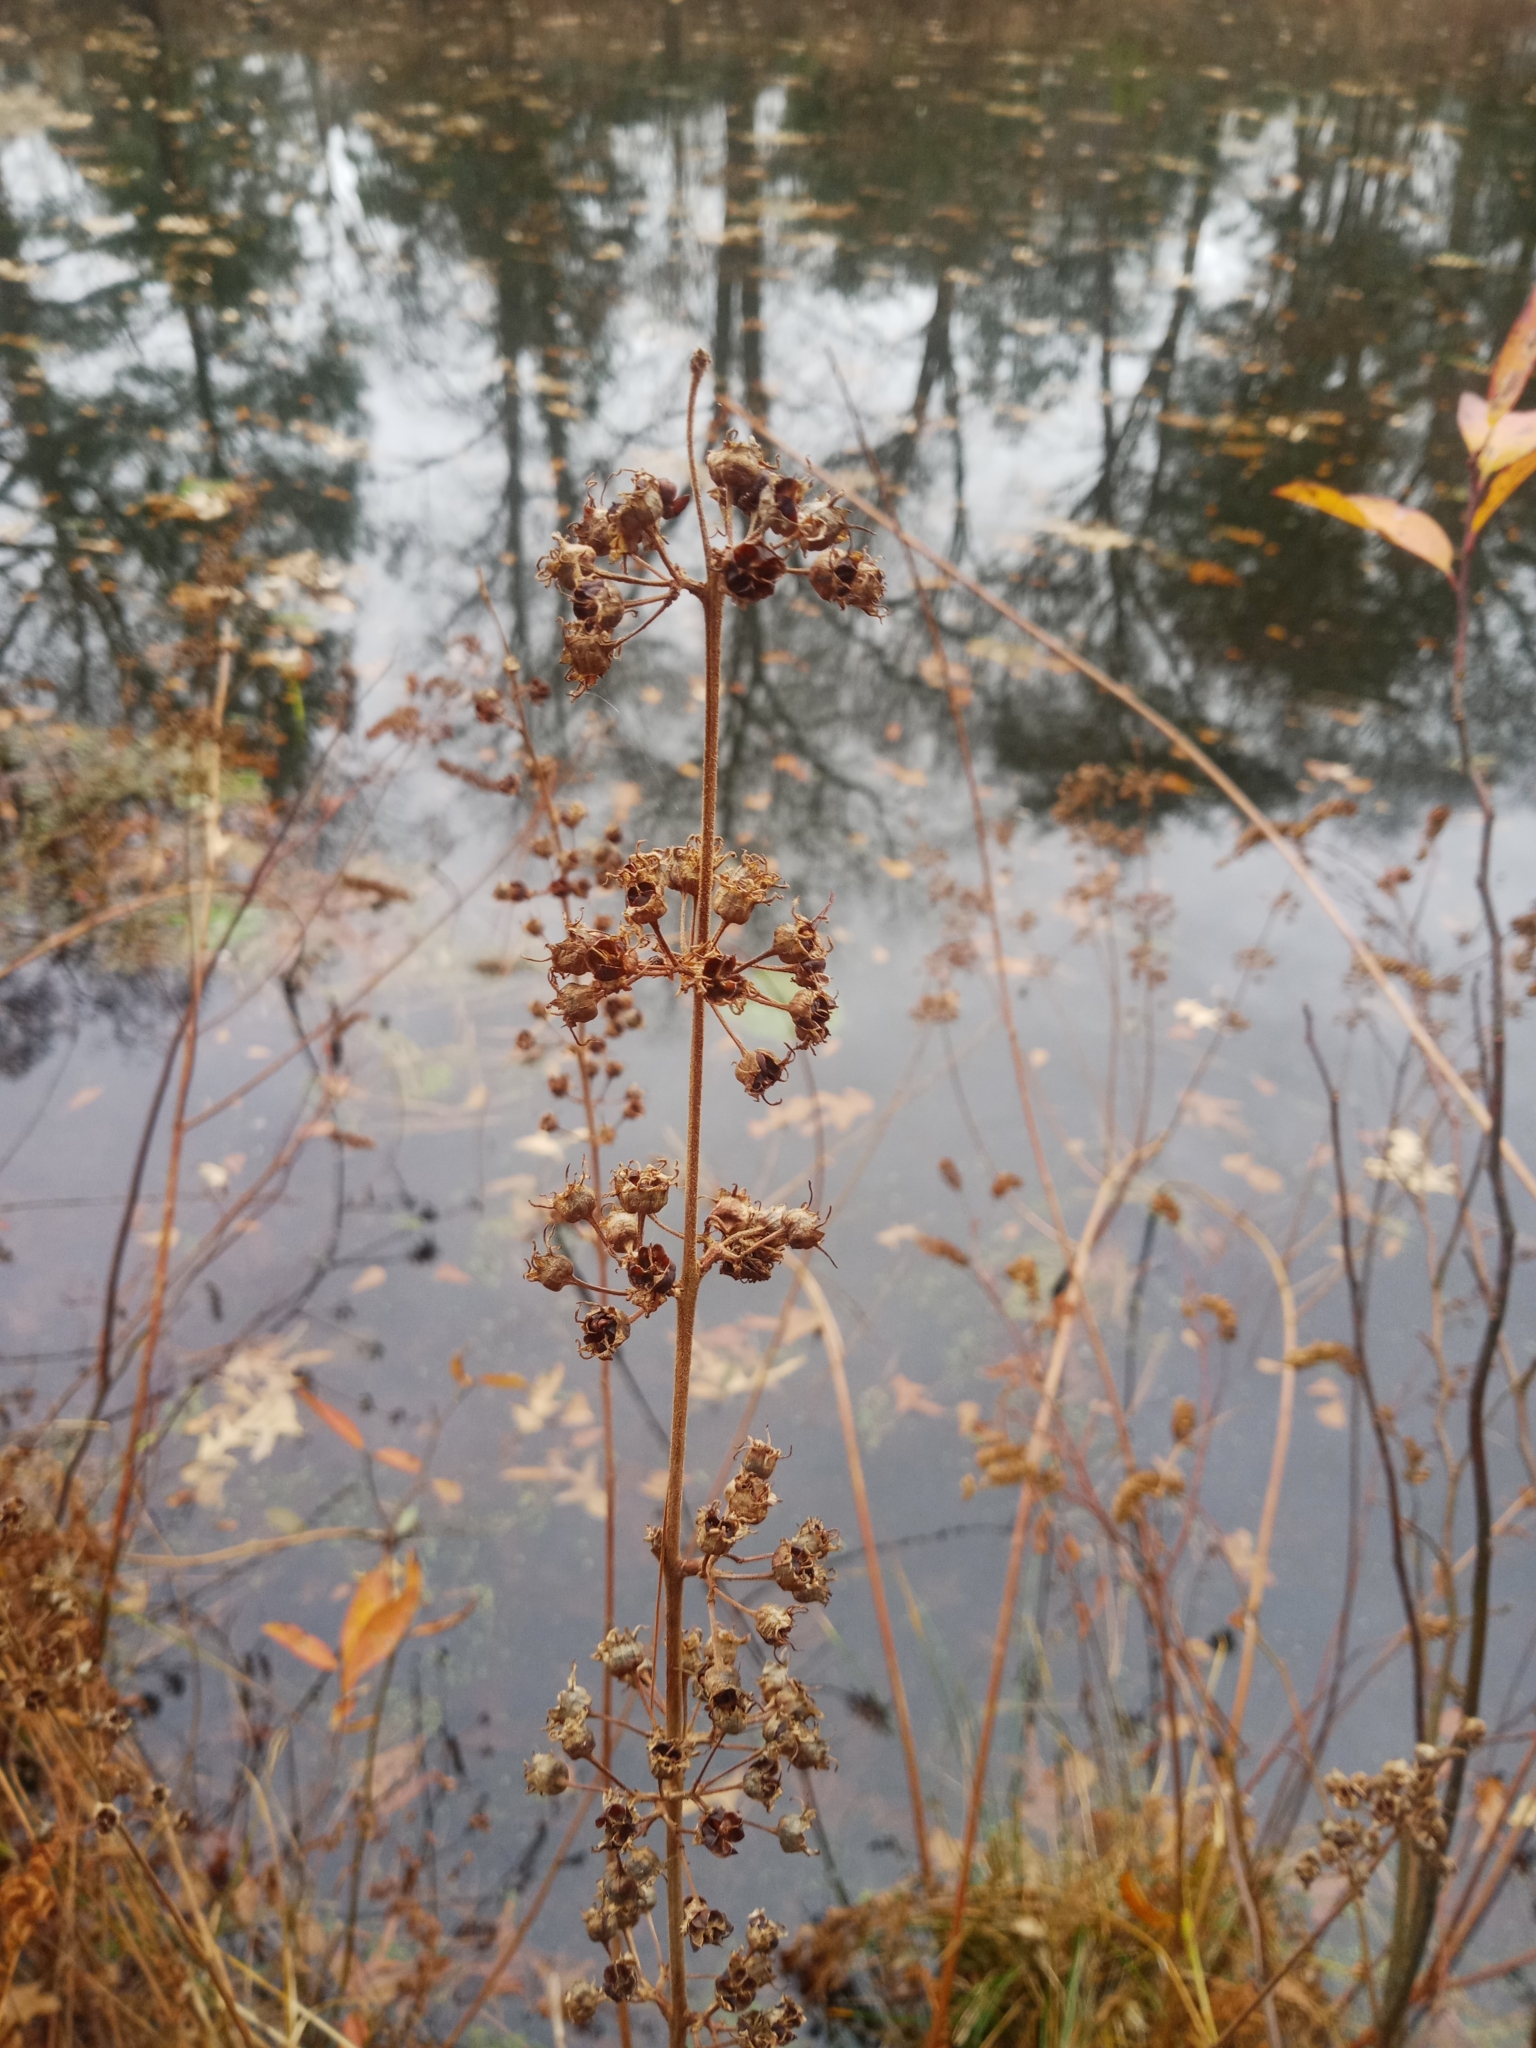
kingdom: Plantae
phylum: Tracheophyta
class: Magnoliopsida
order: Myrtales
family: Lythraceae
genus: Decodon
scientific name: Decodon verticillatus
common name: Hairy swamp loosestrife
